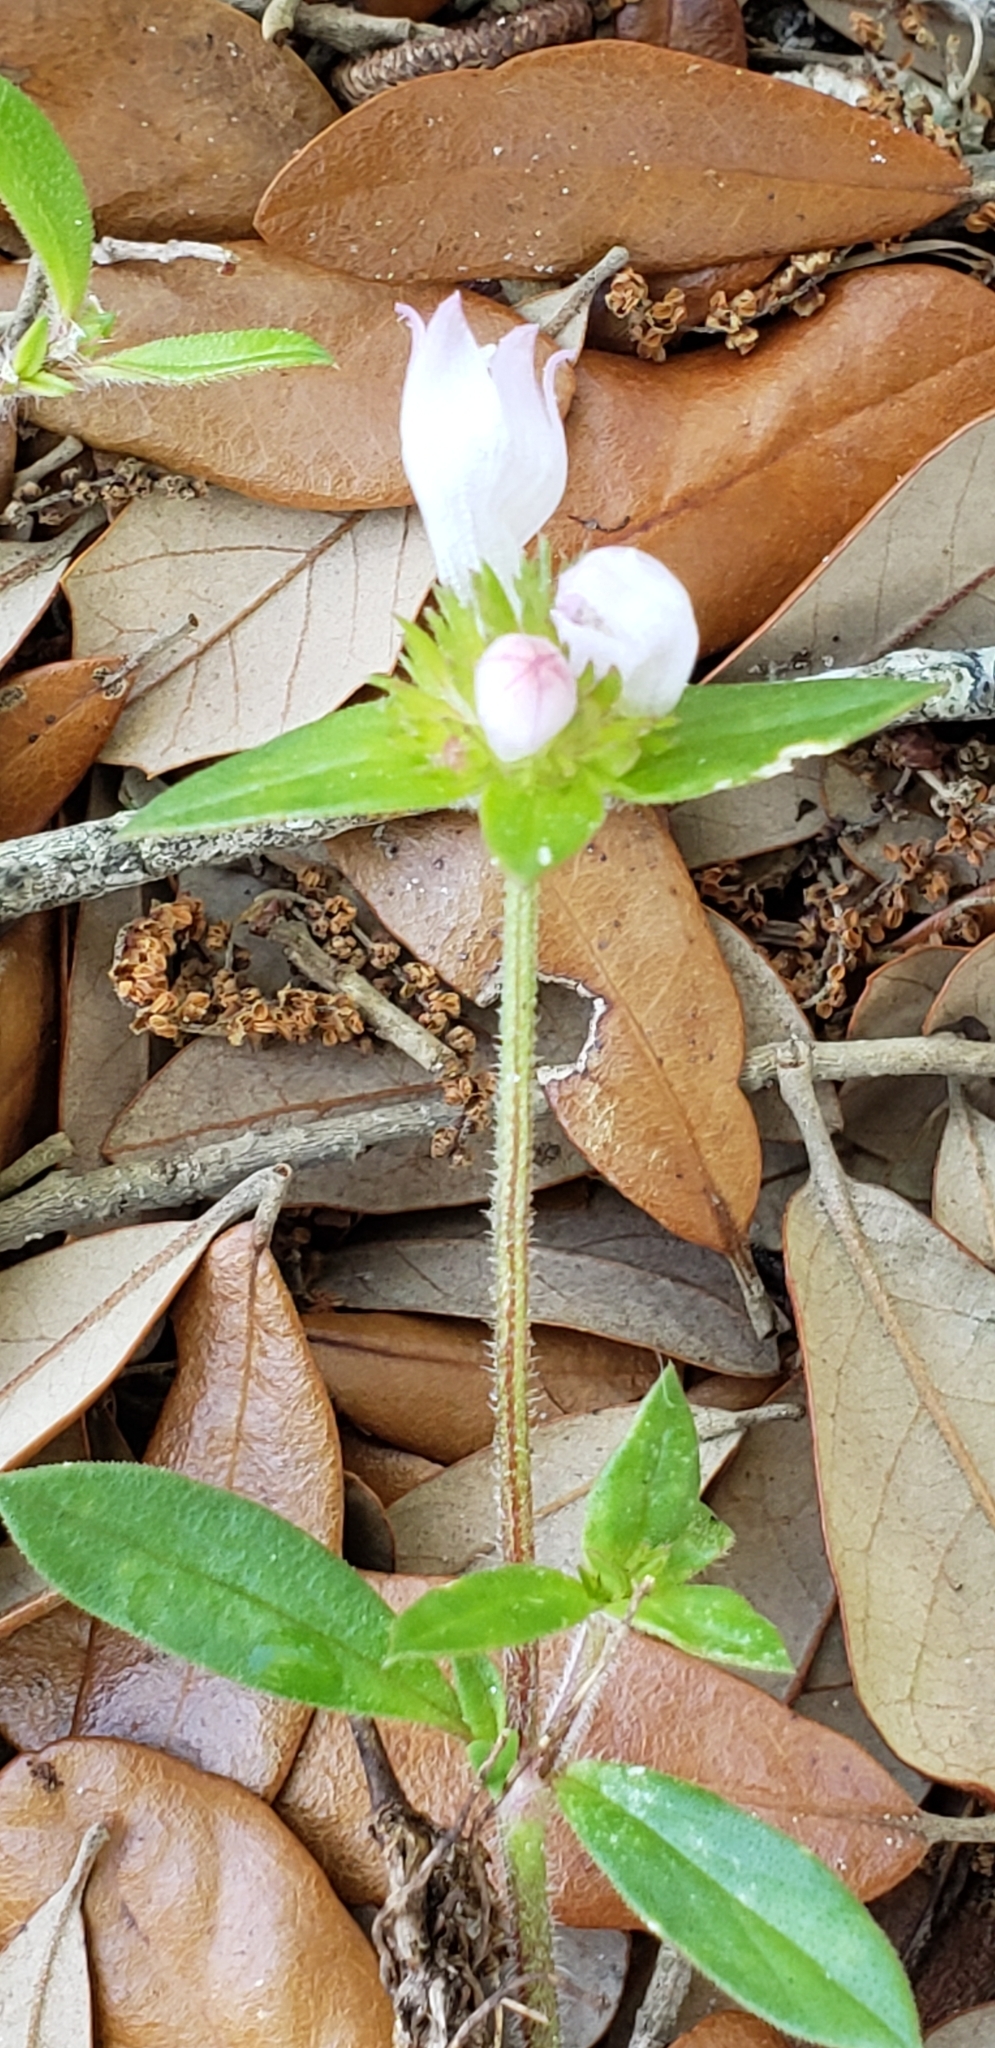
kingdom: Plantae
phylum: Tracheophyta
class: Magnoliopsida
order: Gentianales
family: Rubiaceae
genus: Richardia
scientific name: Richardia grandiflora
